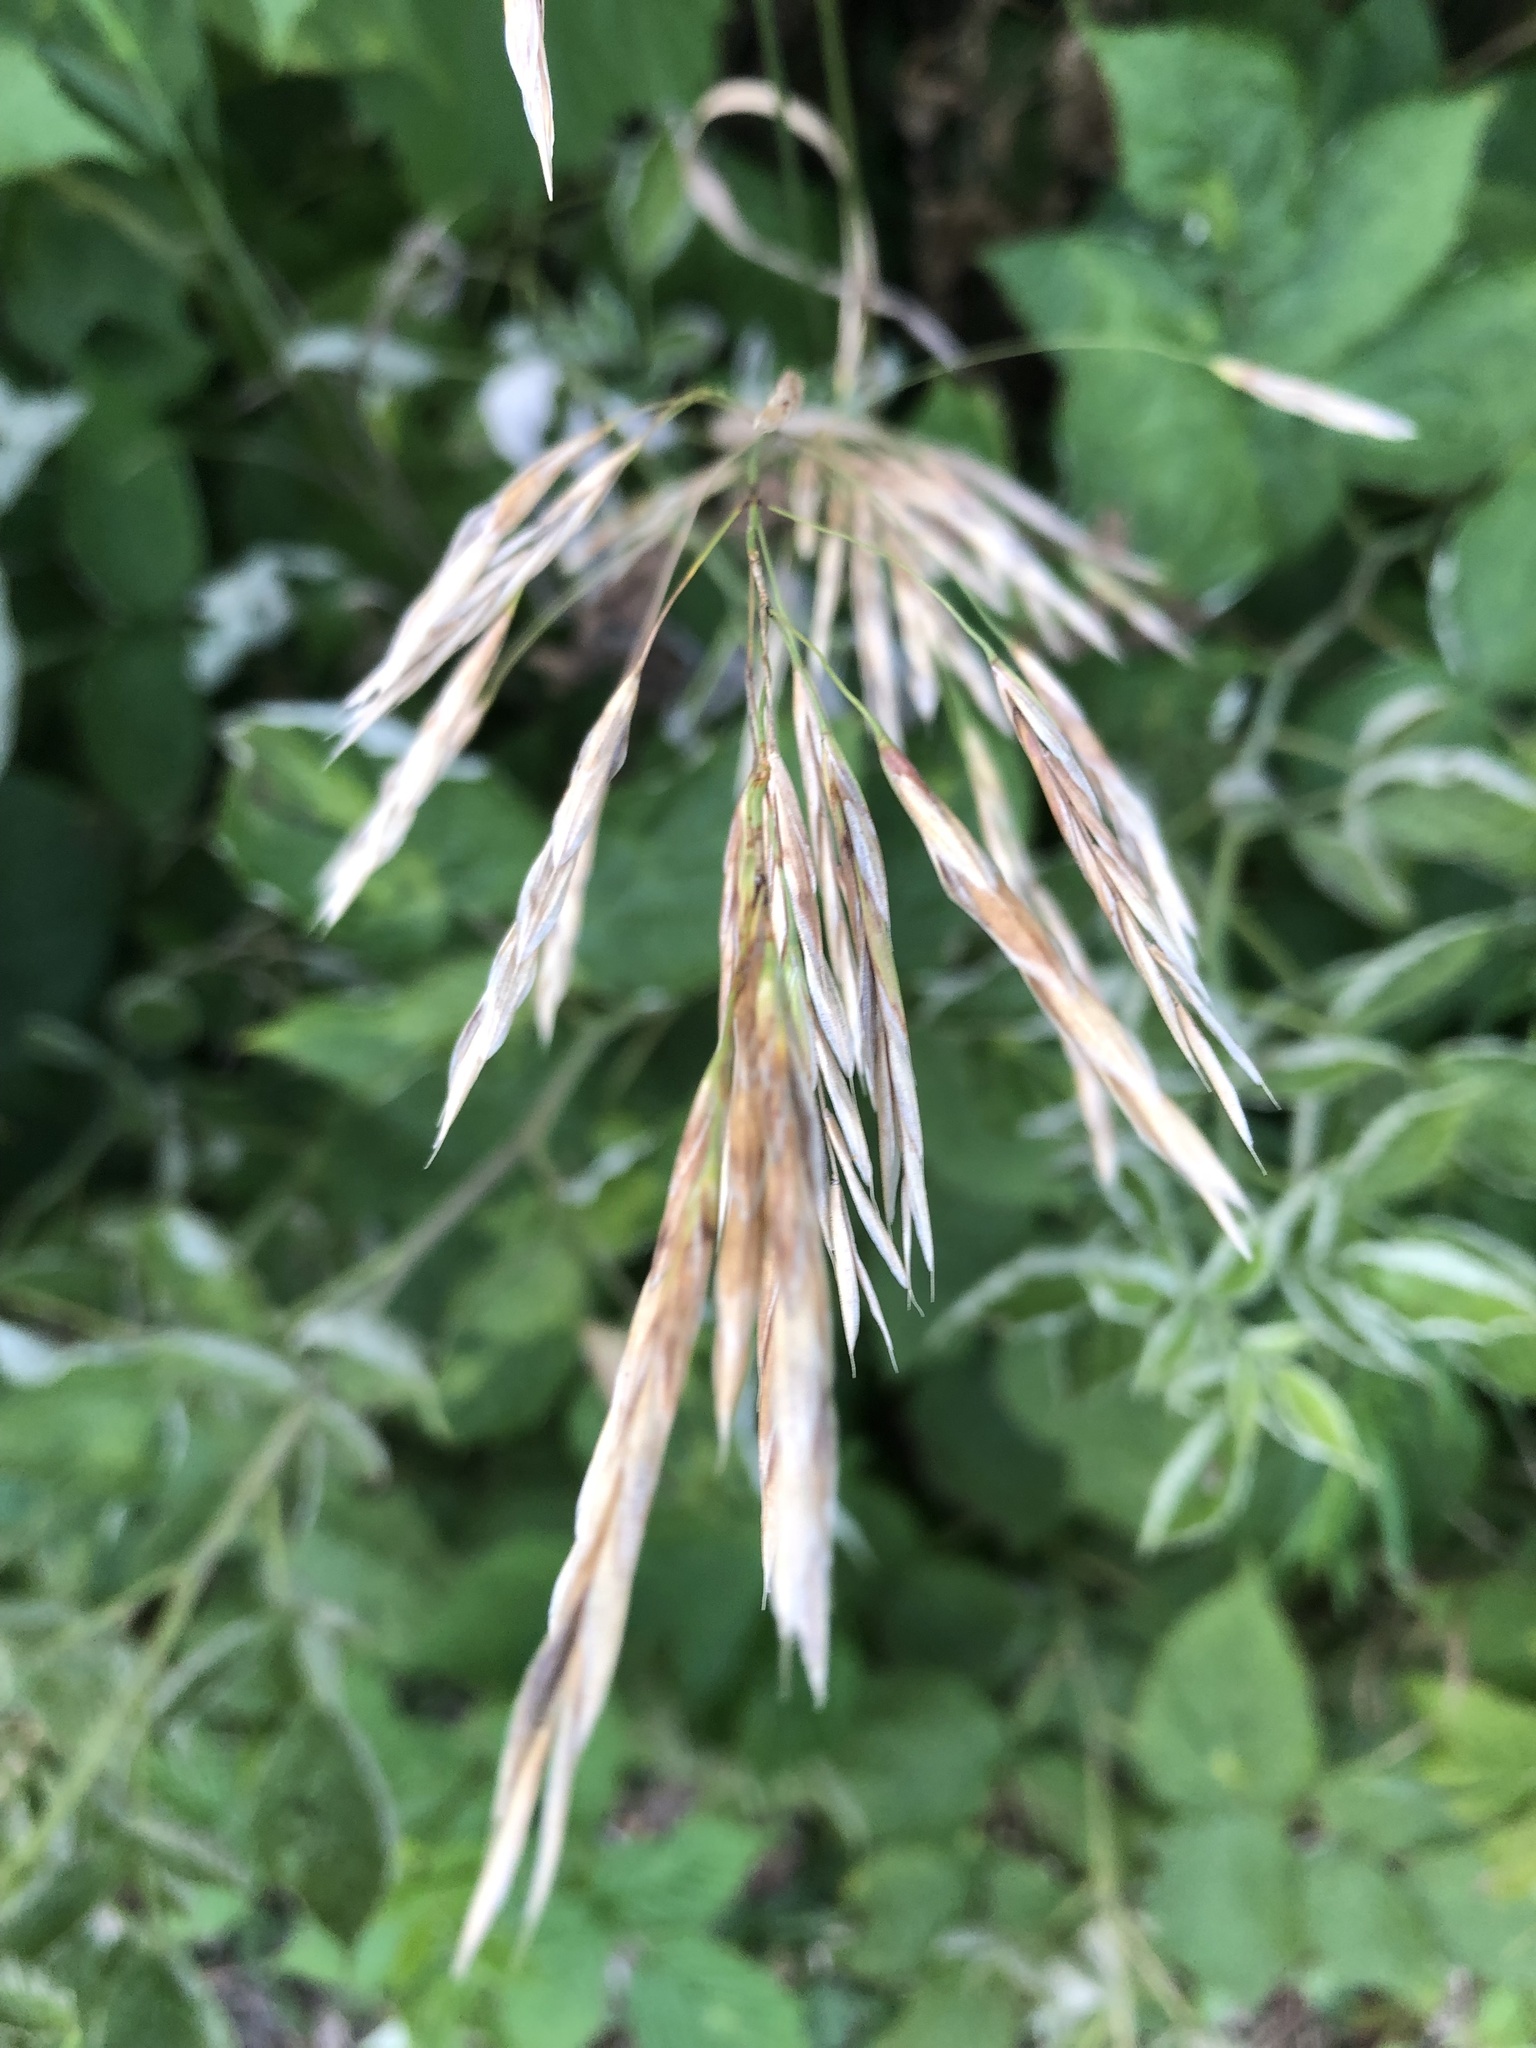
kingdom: Plantae
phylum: Tracheophyta
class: Liliopsida
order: Poales
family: Poaceae
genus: Bromus
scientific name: Bromus inermis
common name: Smooth brome
